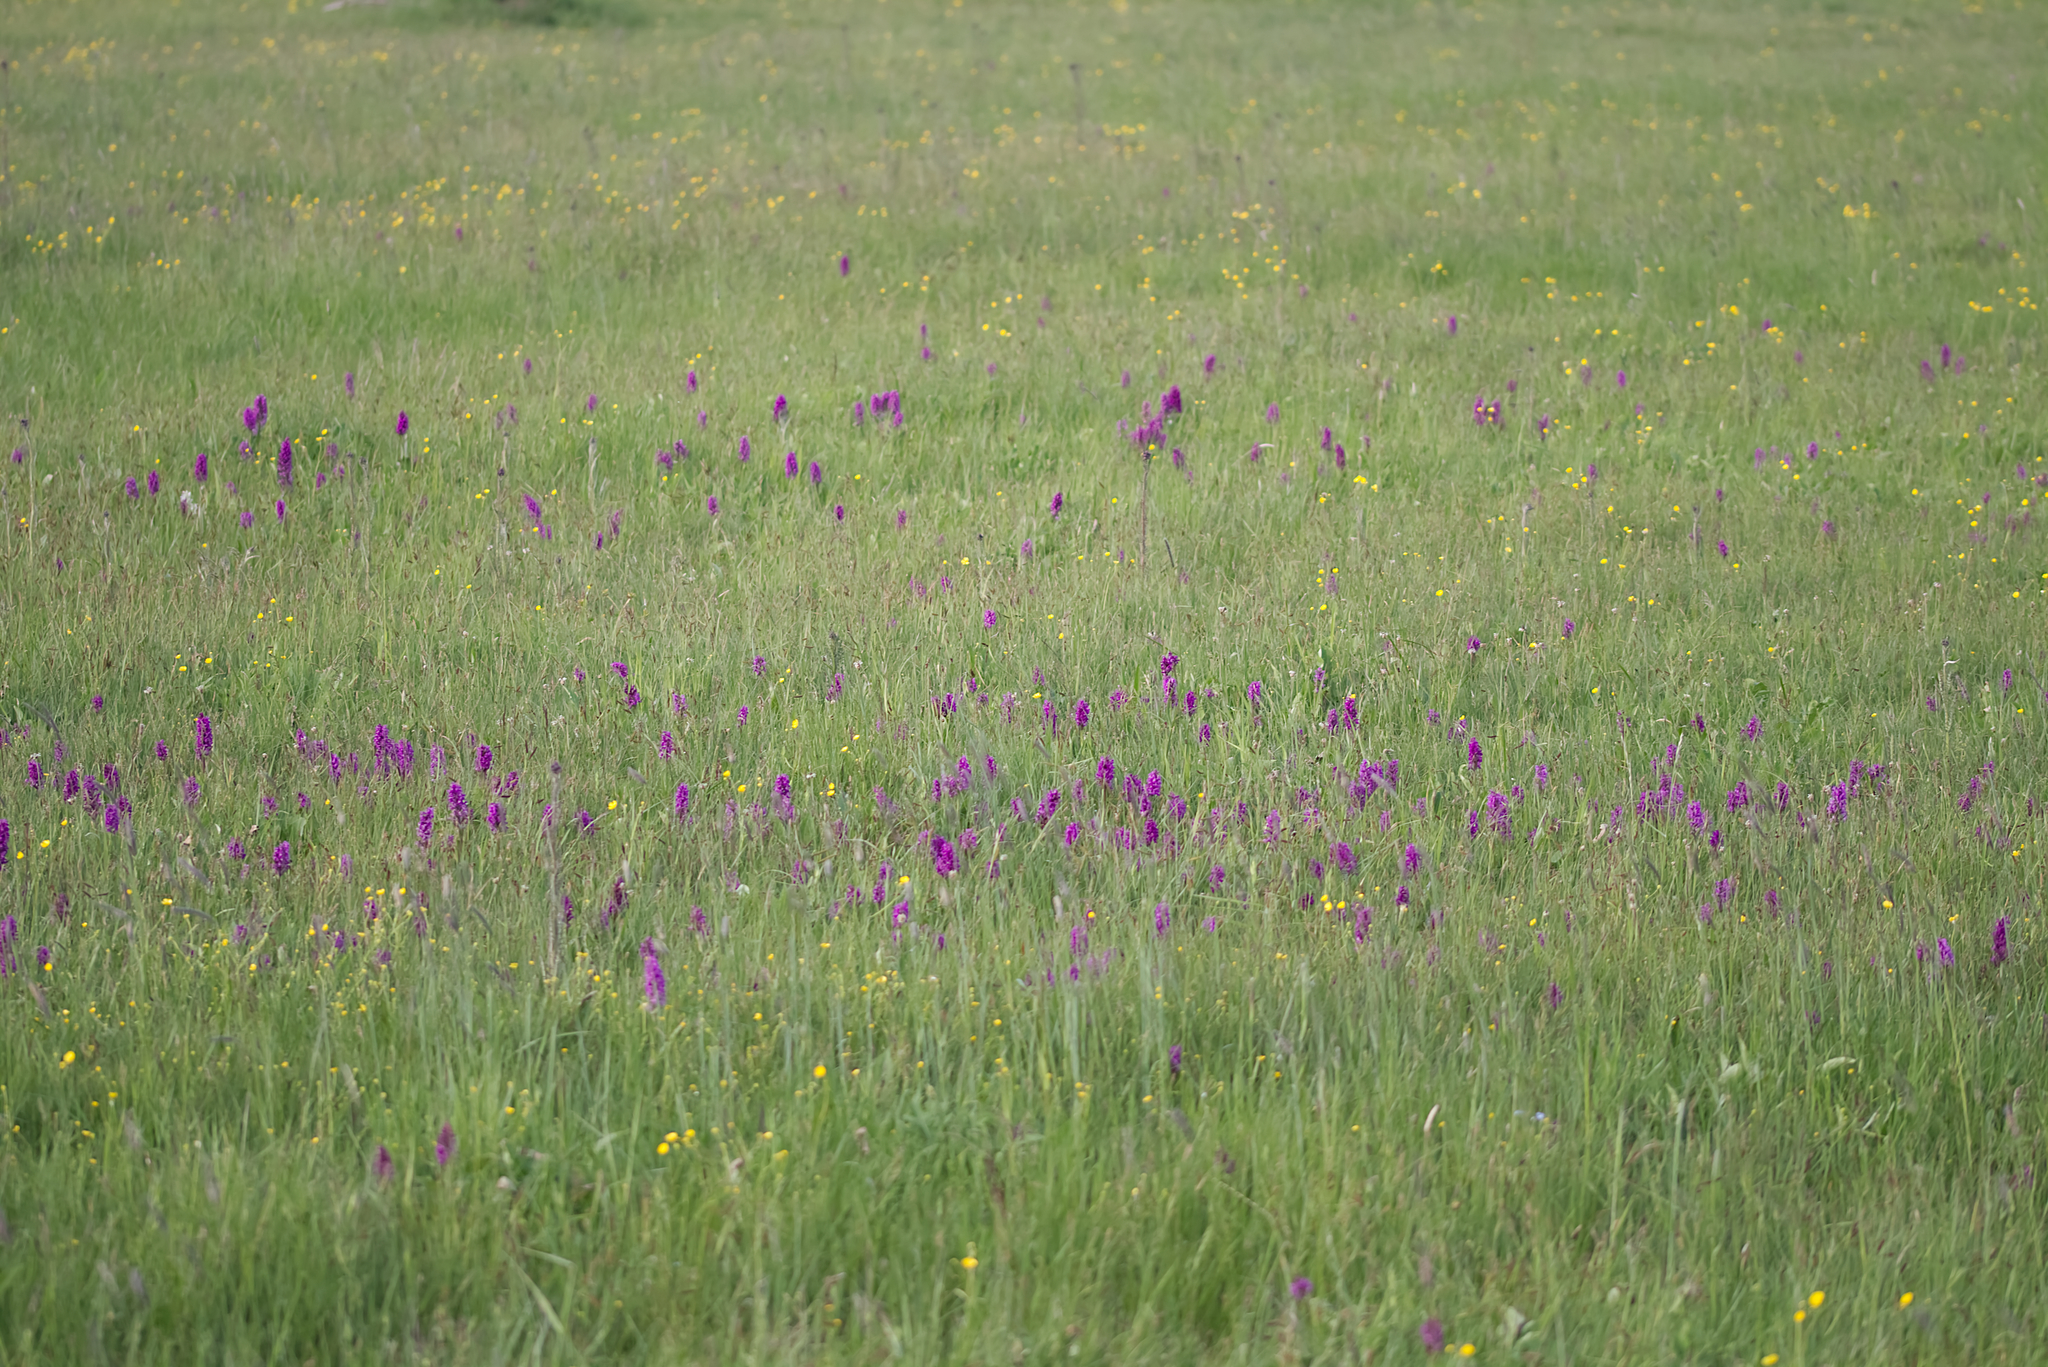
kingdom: Plantae
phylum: Tracheophyta
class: Liliopsida
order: Asparagales
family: Orchidaceae
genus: Dactylorhiza
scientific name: Dactylorhiza majalis
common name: Marsh orchid
